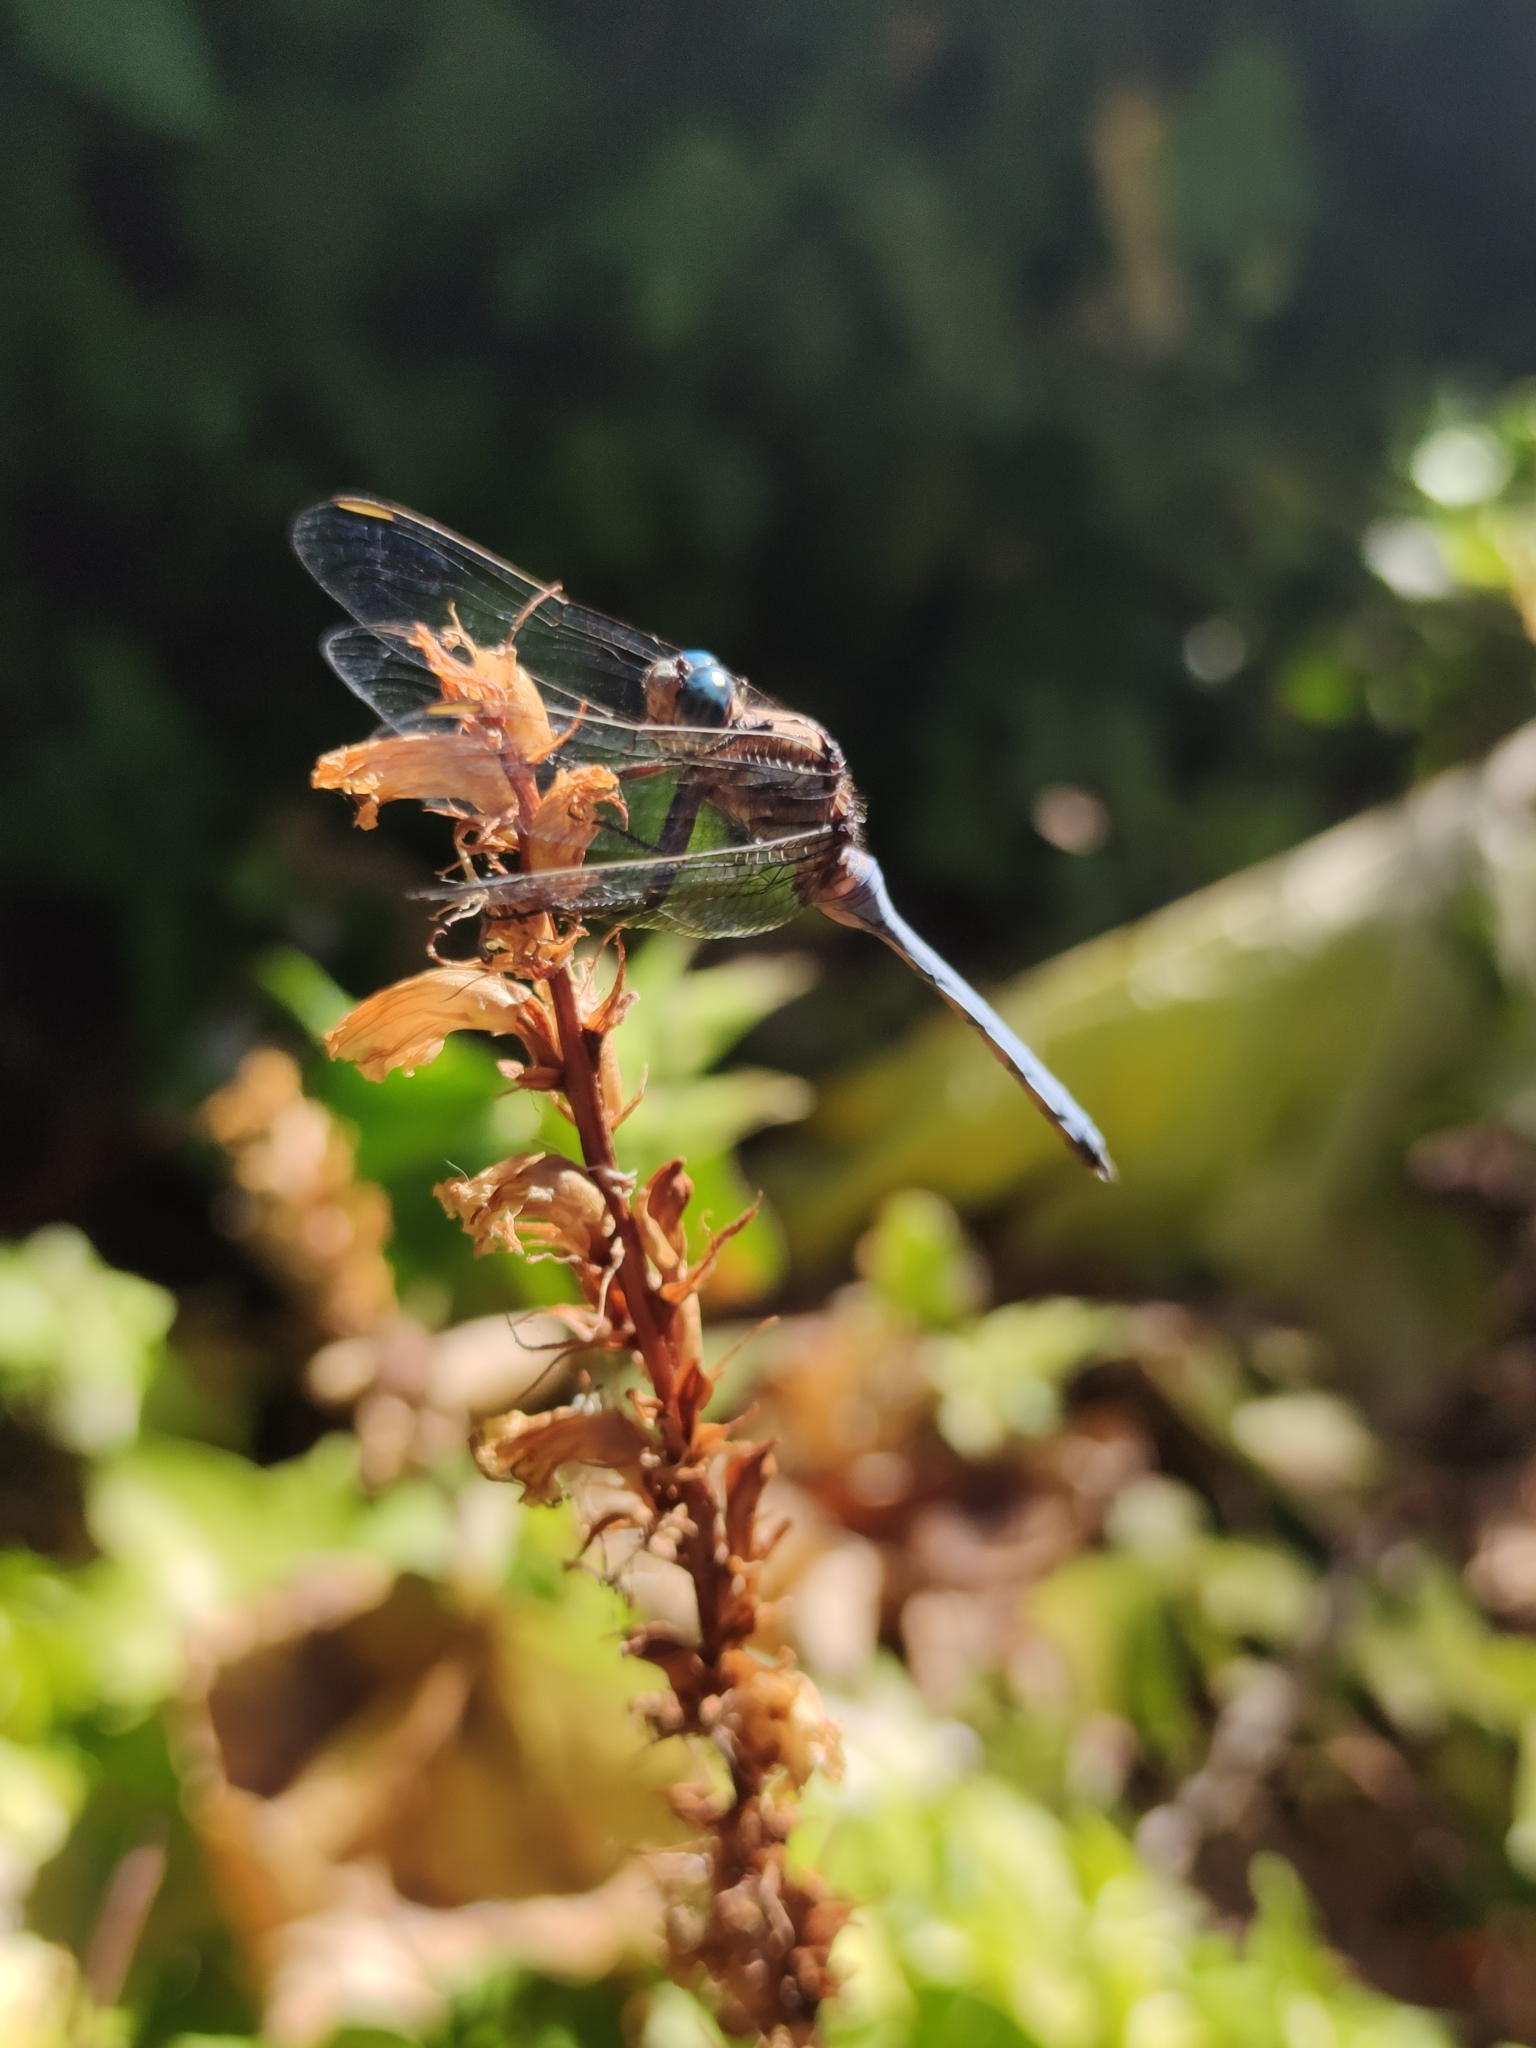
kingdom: Animalia
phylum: Arthropoda
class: Insecta
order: Odonata
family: Libellulidae
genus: Orthetrum
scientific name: Orthetrum julia
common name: Julia skimmer
